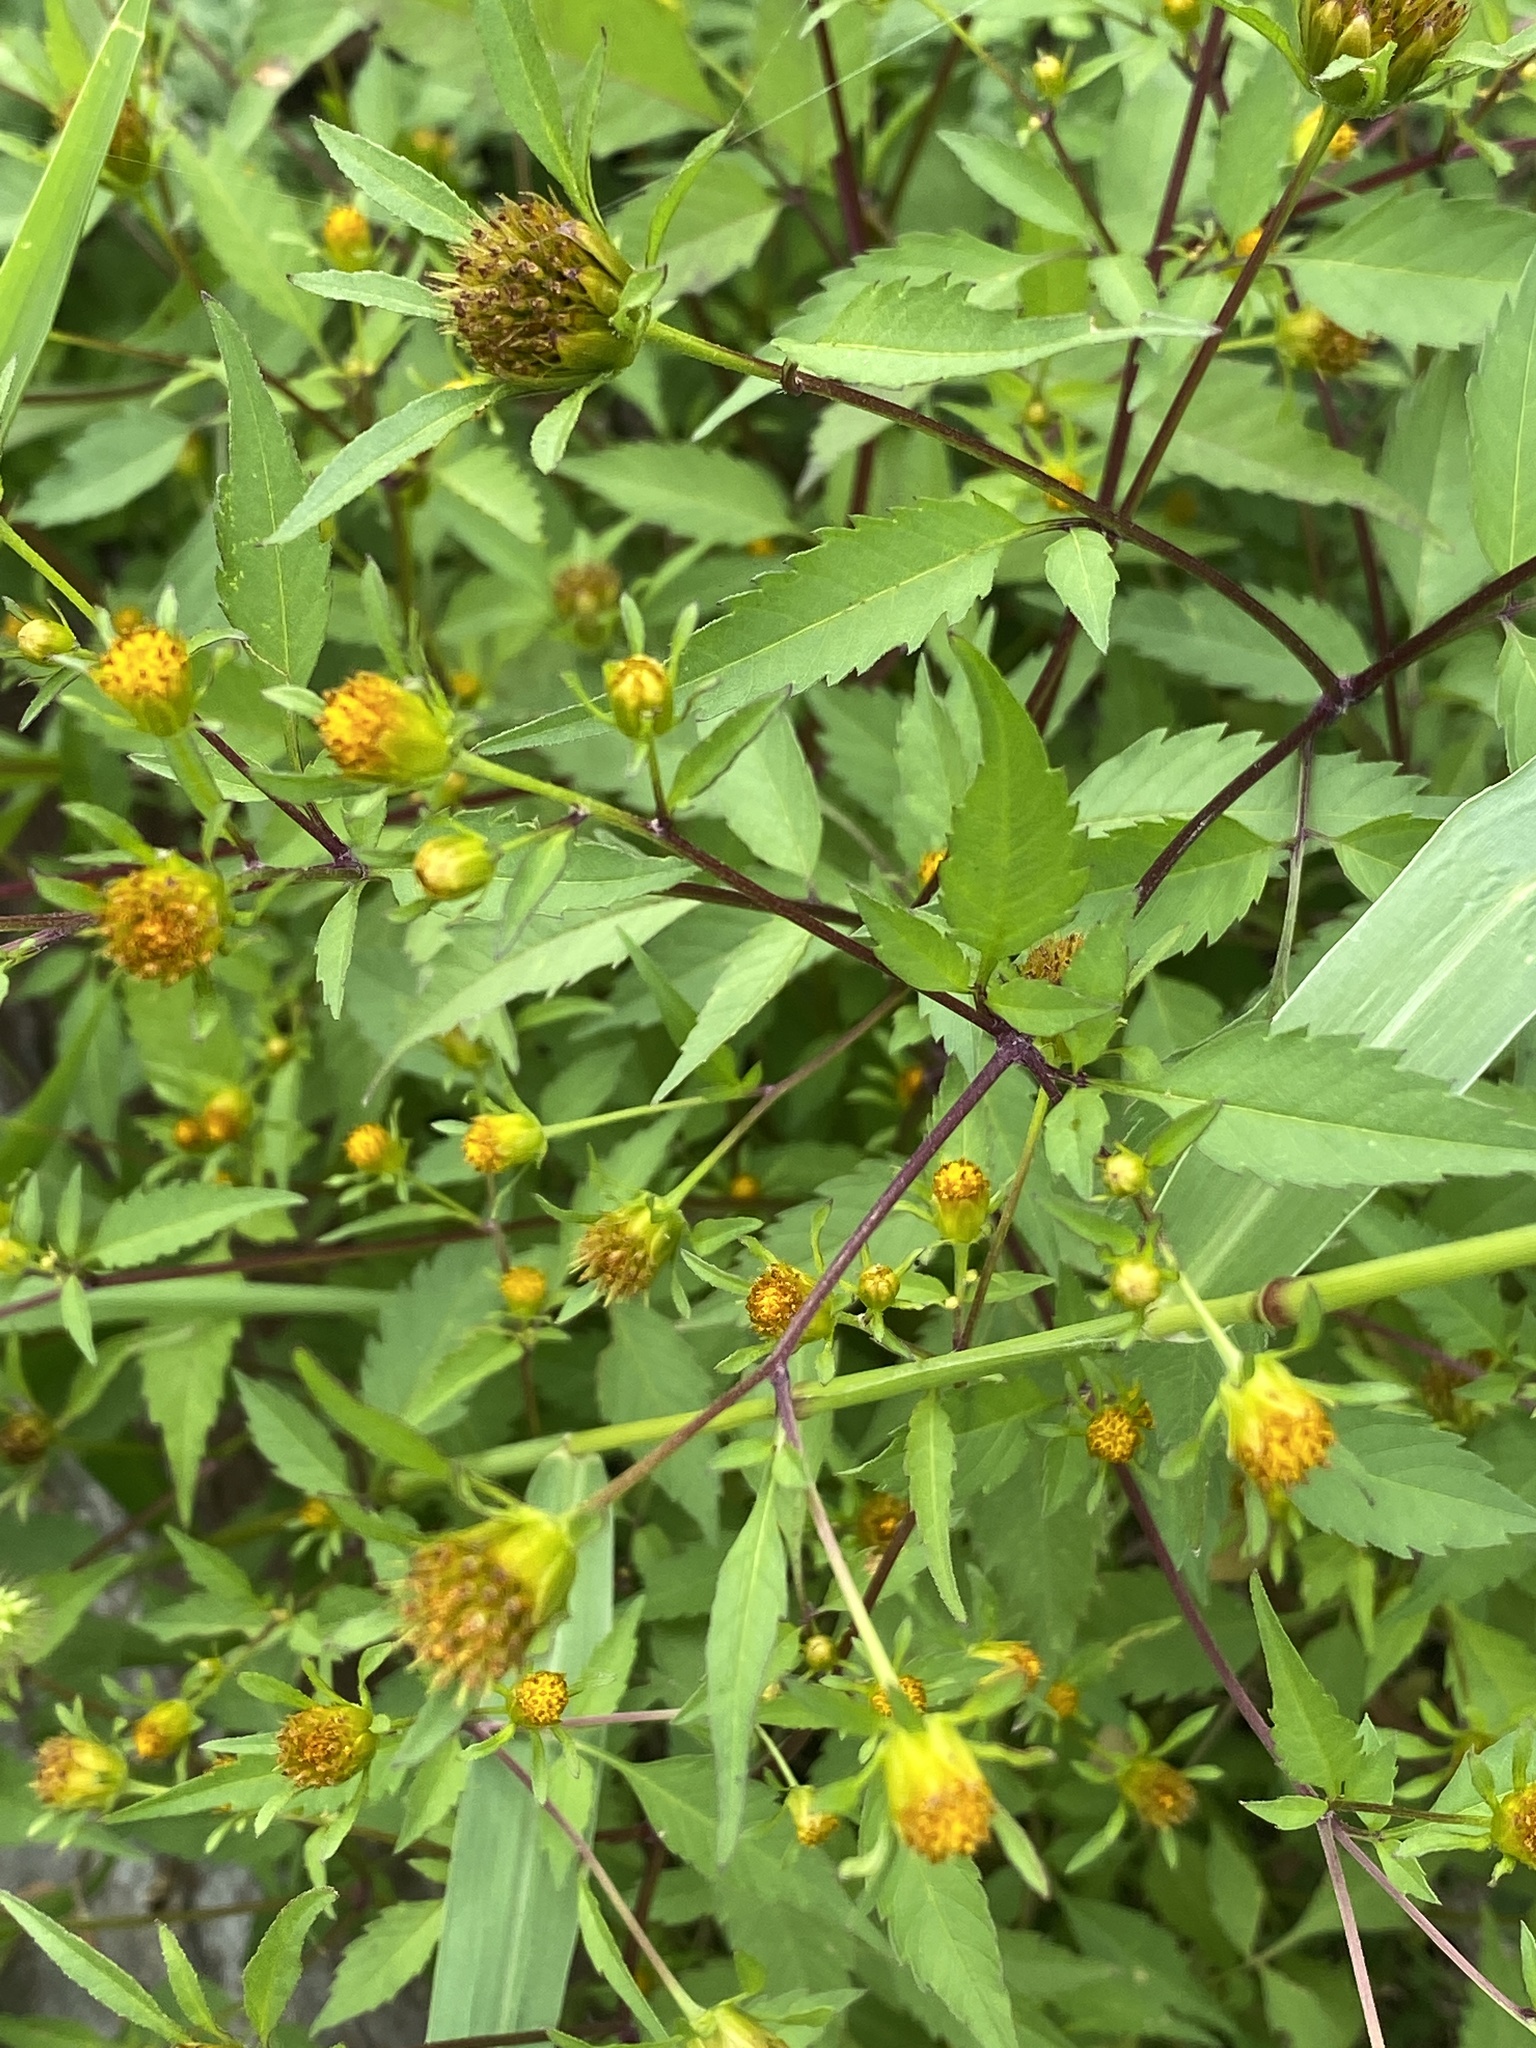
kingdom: Plantae
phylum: Tracheophyta
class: Magnoliopsida
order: Asterales
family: Asteraceae
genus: Bidens
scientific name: Bidens frondosa
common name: Beggarticks
